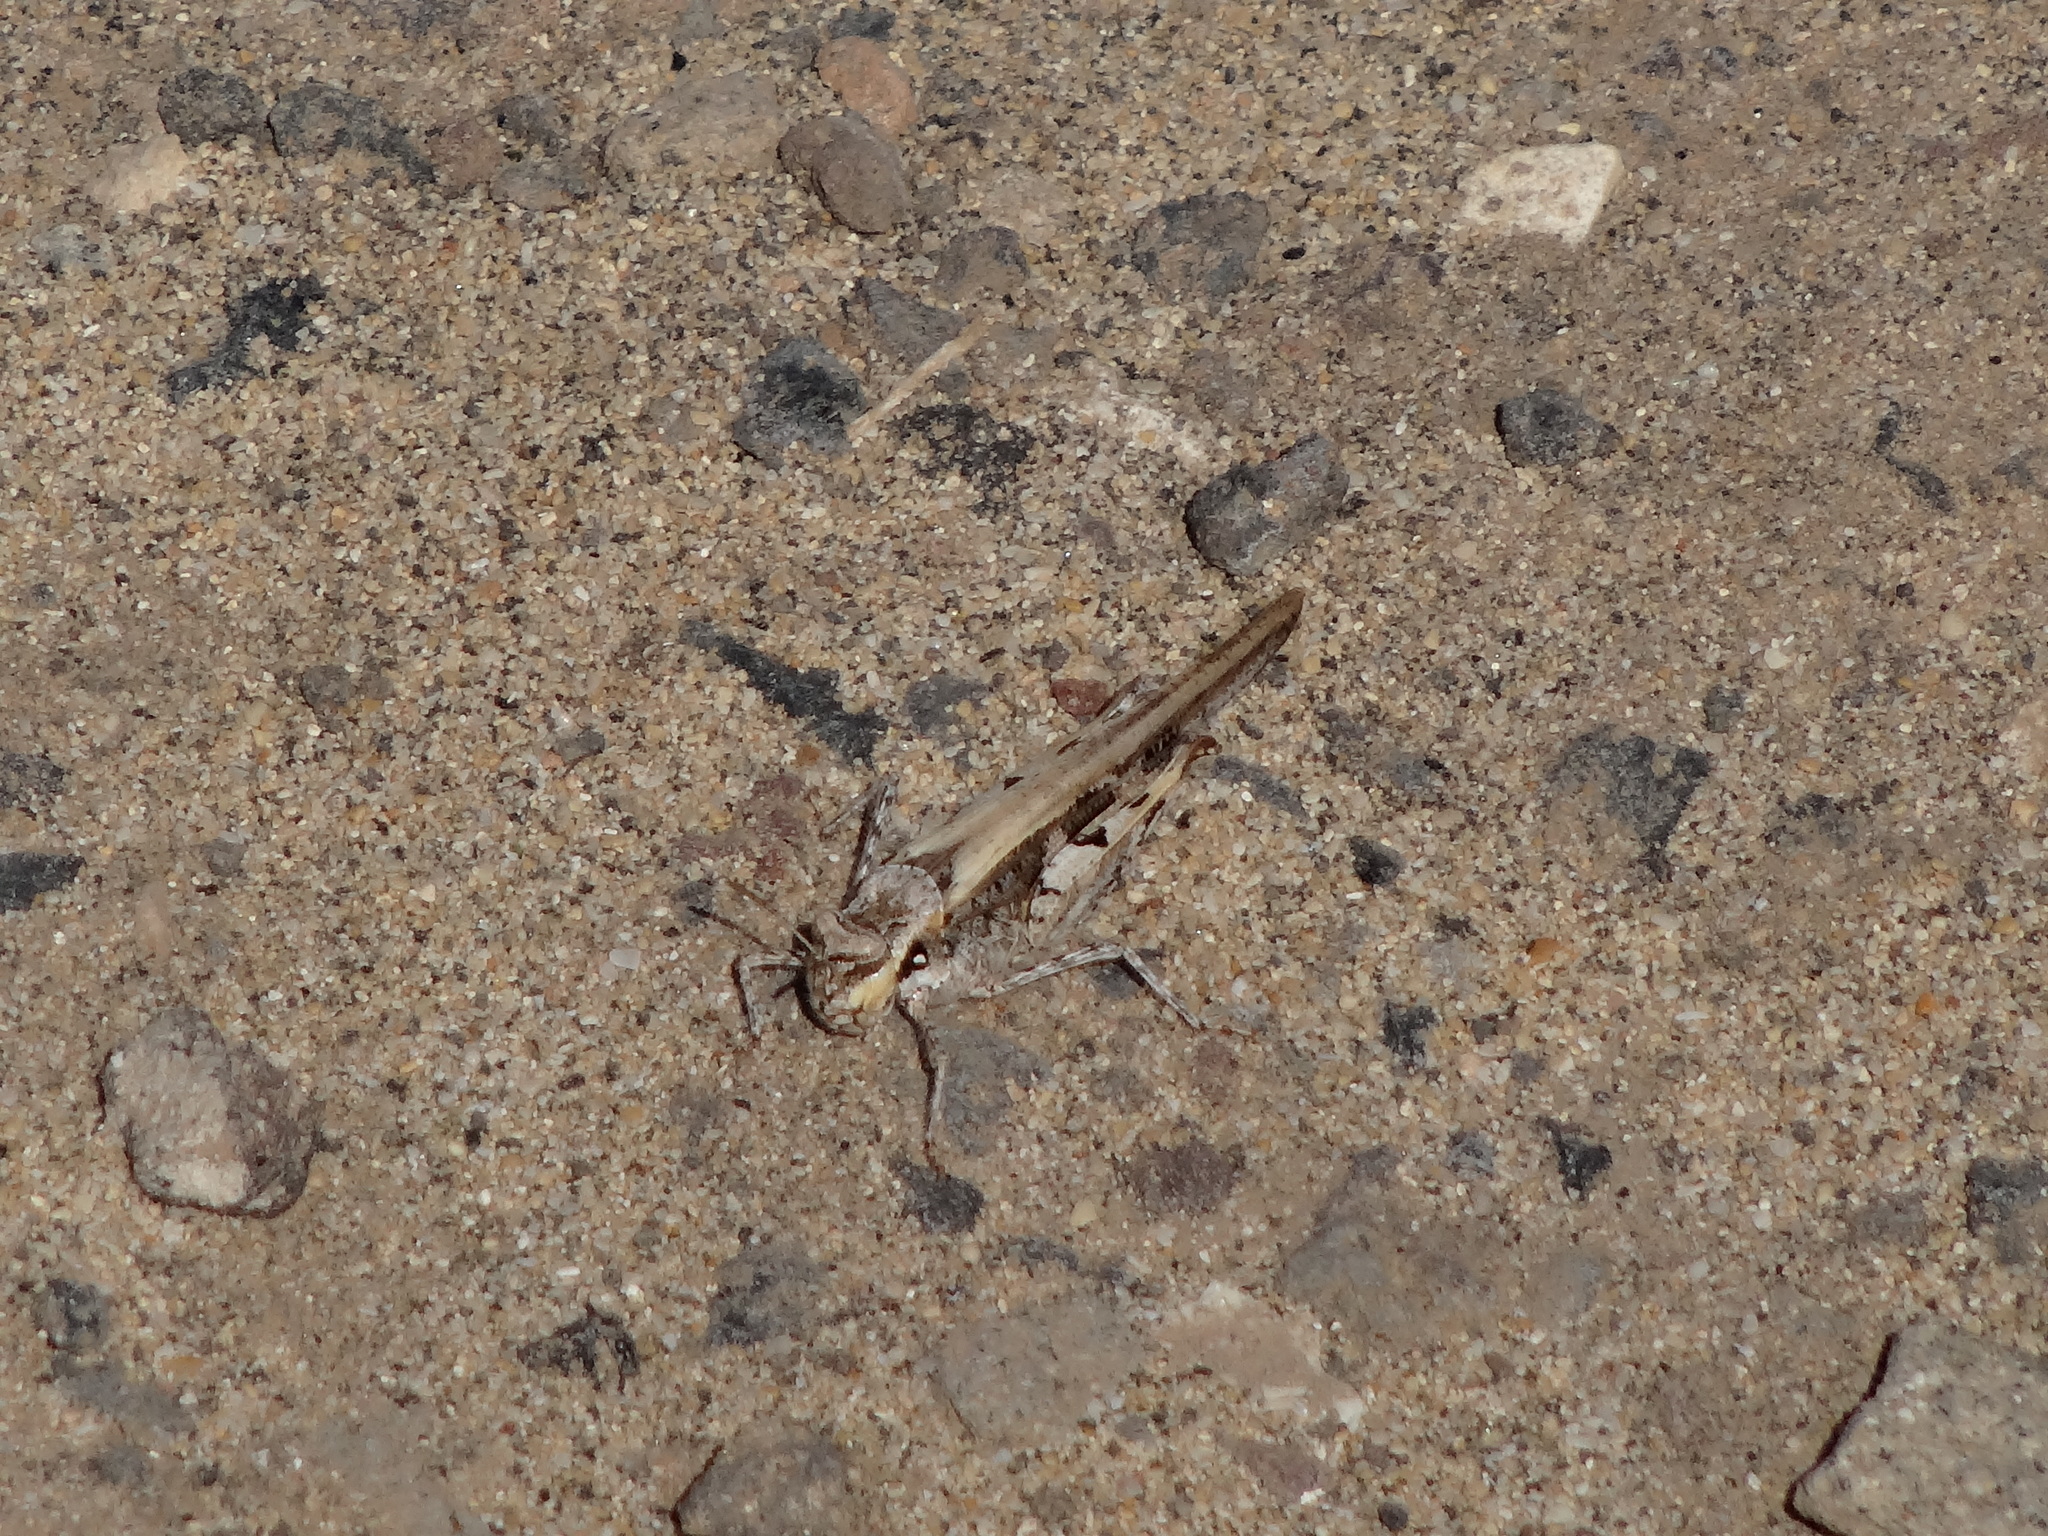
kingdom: Animalia
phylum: Arthropoda
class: Insecta
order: Orthoptera
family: Acrididae
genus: Acrotylus
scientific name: Acrotylus insubricus
